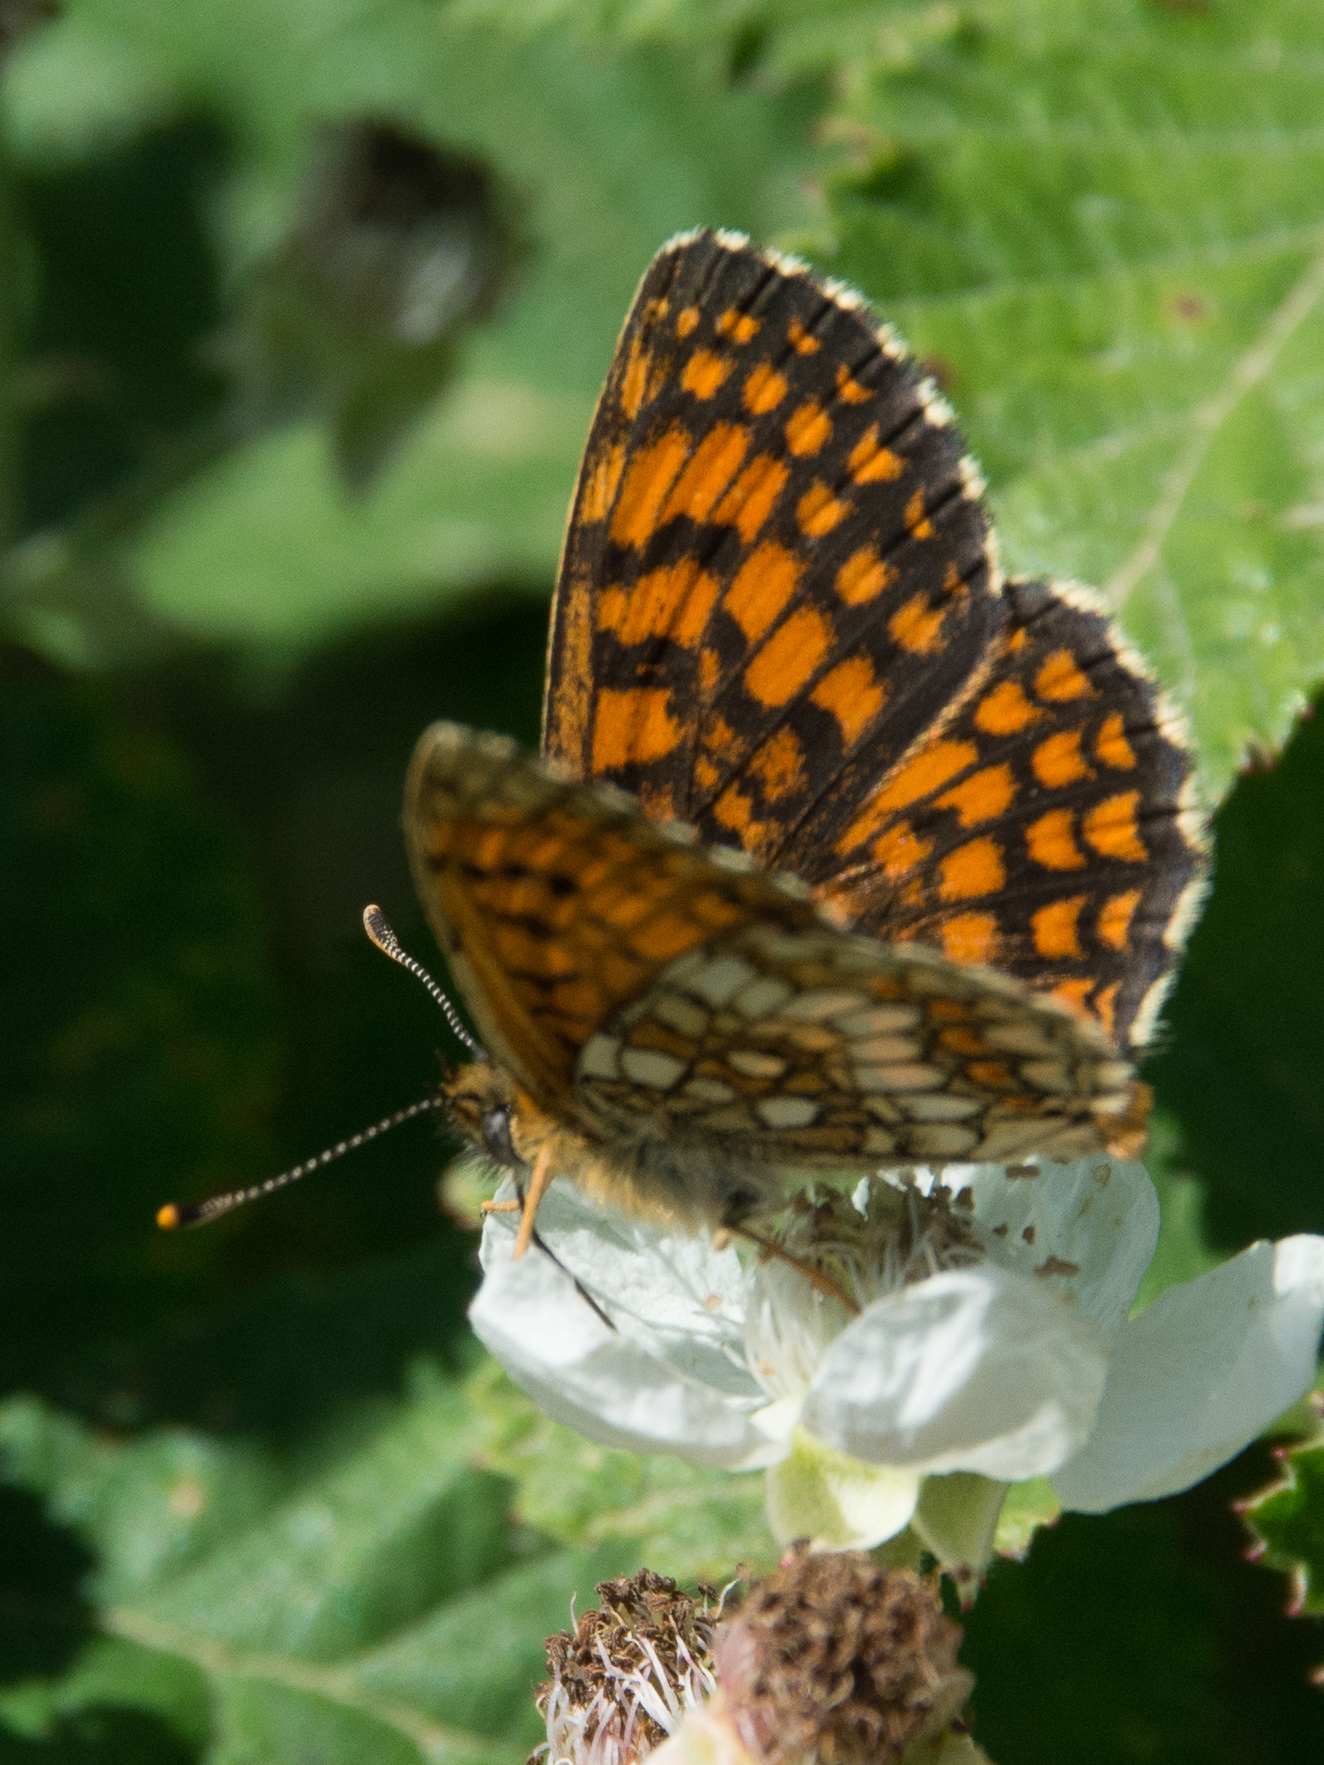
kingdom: Animalia
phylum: Arthropoda
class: Insecta
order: Lepidoptera
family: Nymphalidae
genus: Mellicta
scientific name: Mellicta athalia
